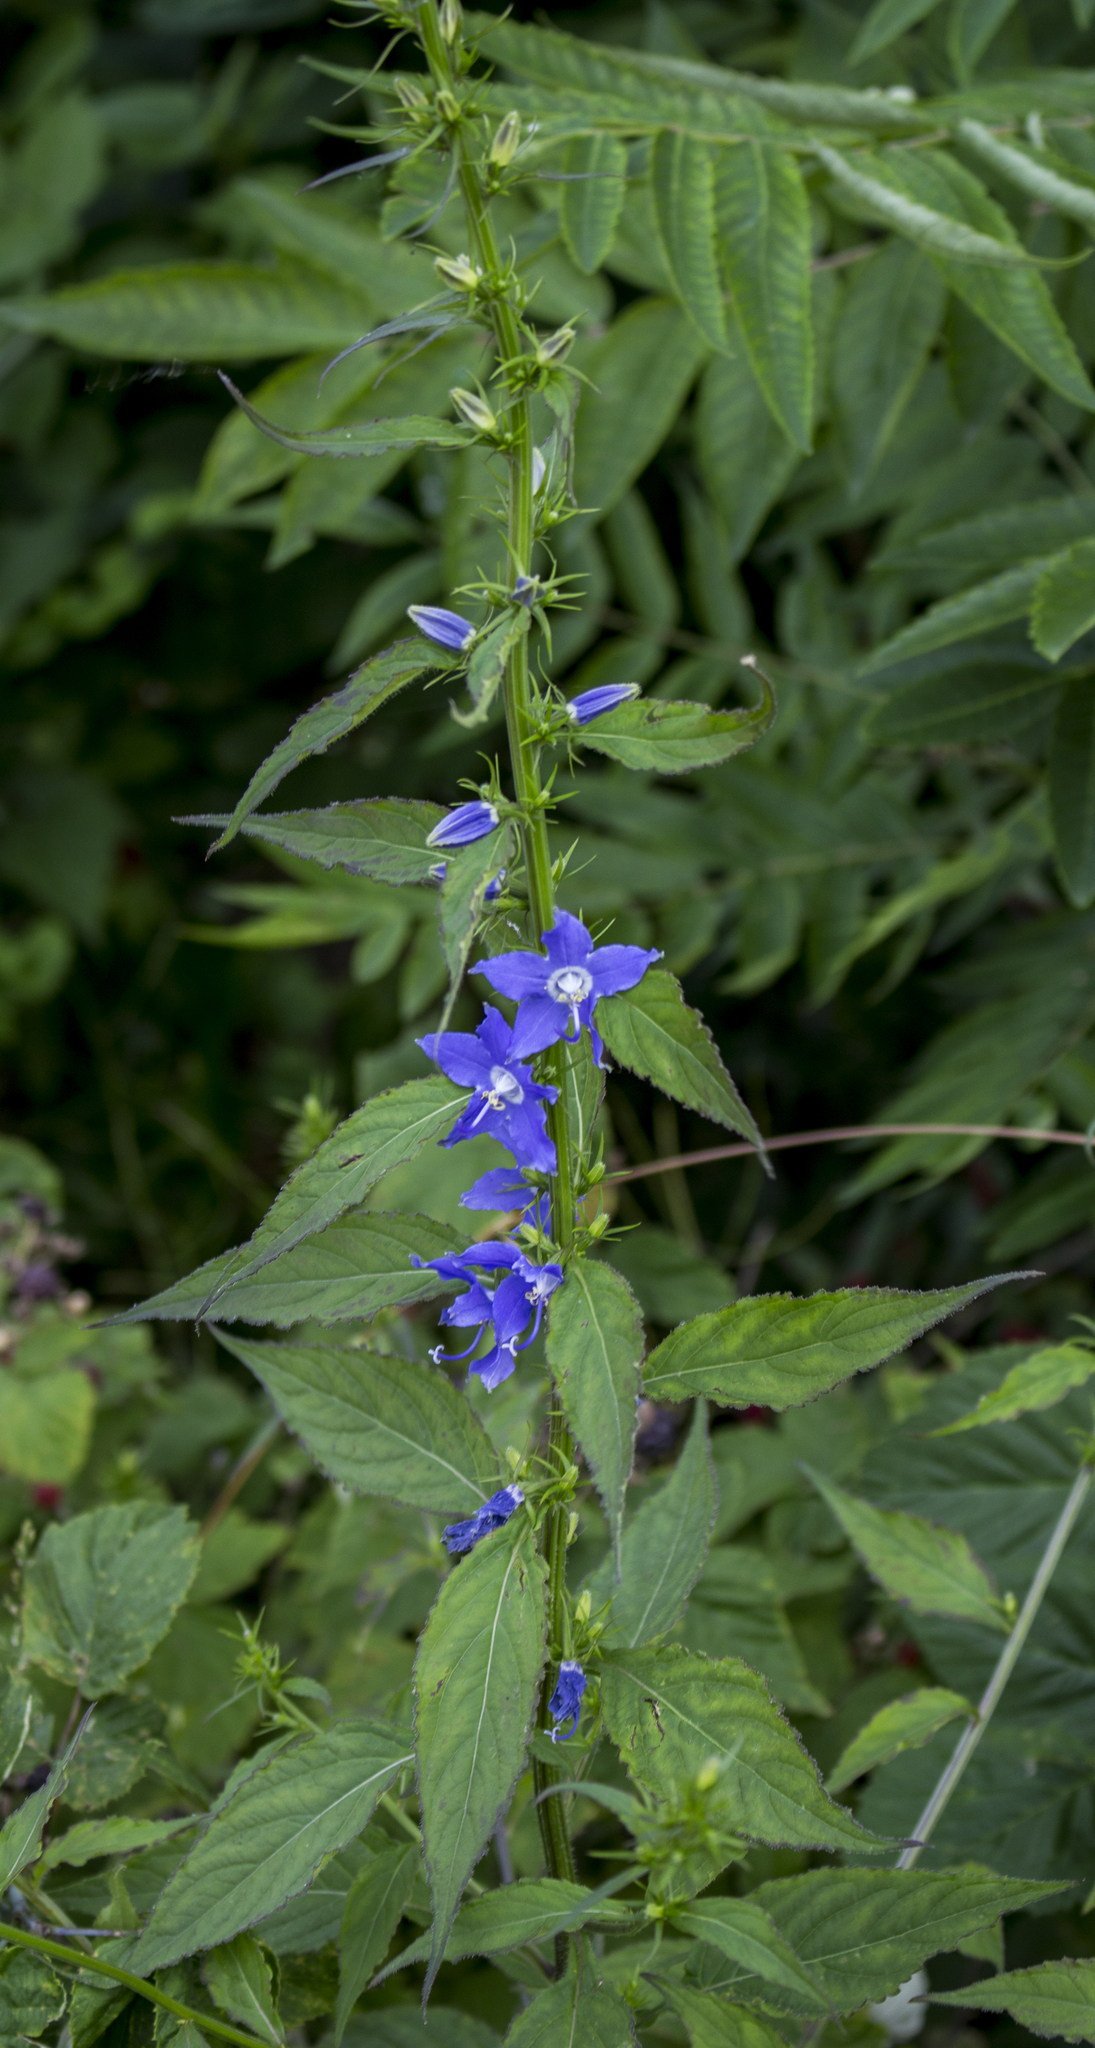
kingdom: Plantae
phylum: Tracheophyta
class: Magnoliopsida
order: Asterales
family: Campanulaceae
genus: Campanulastrum
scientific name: Campanulastrum americanum
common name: American bellflower
